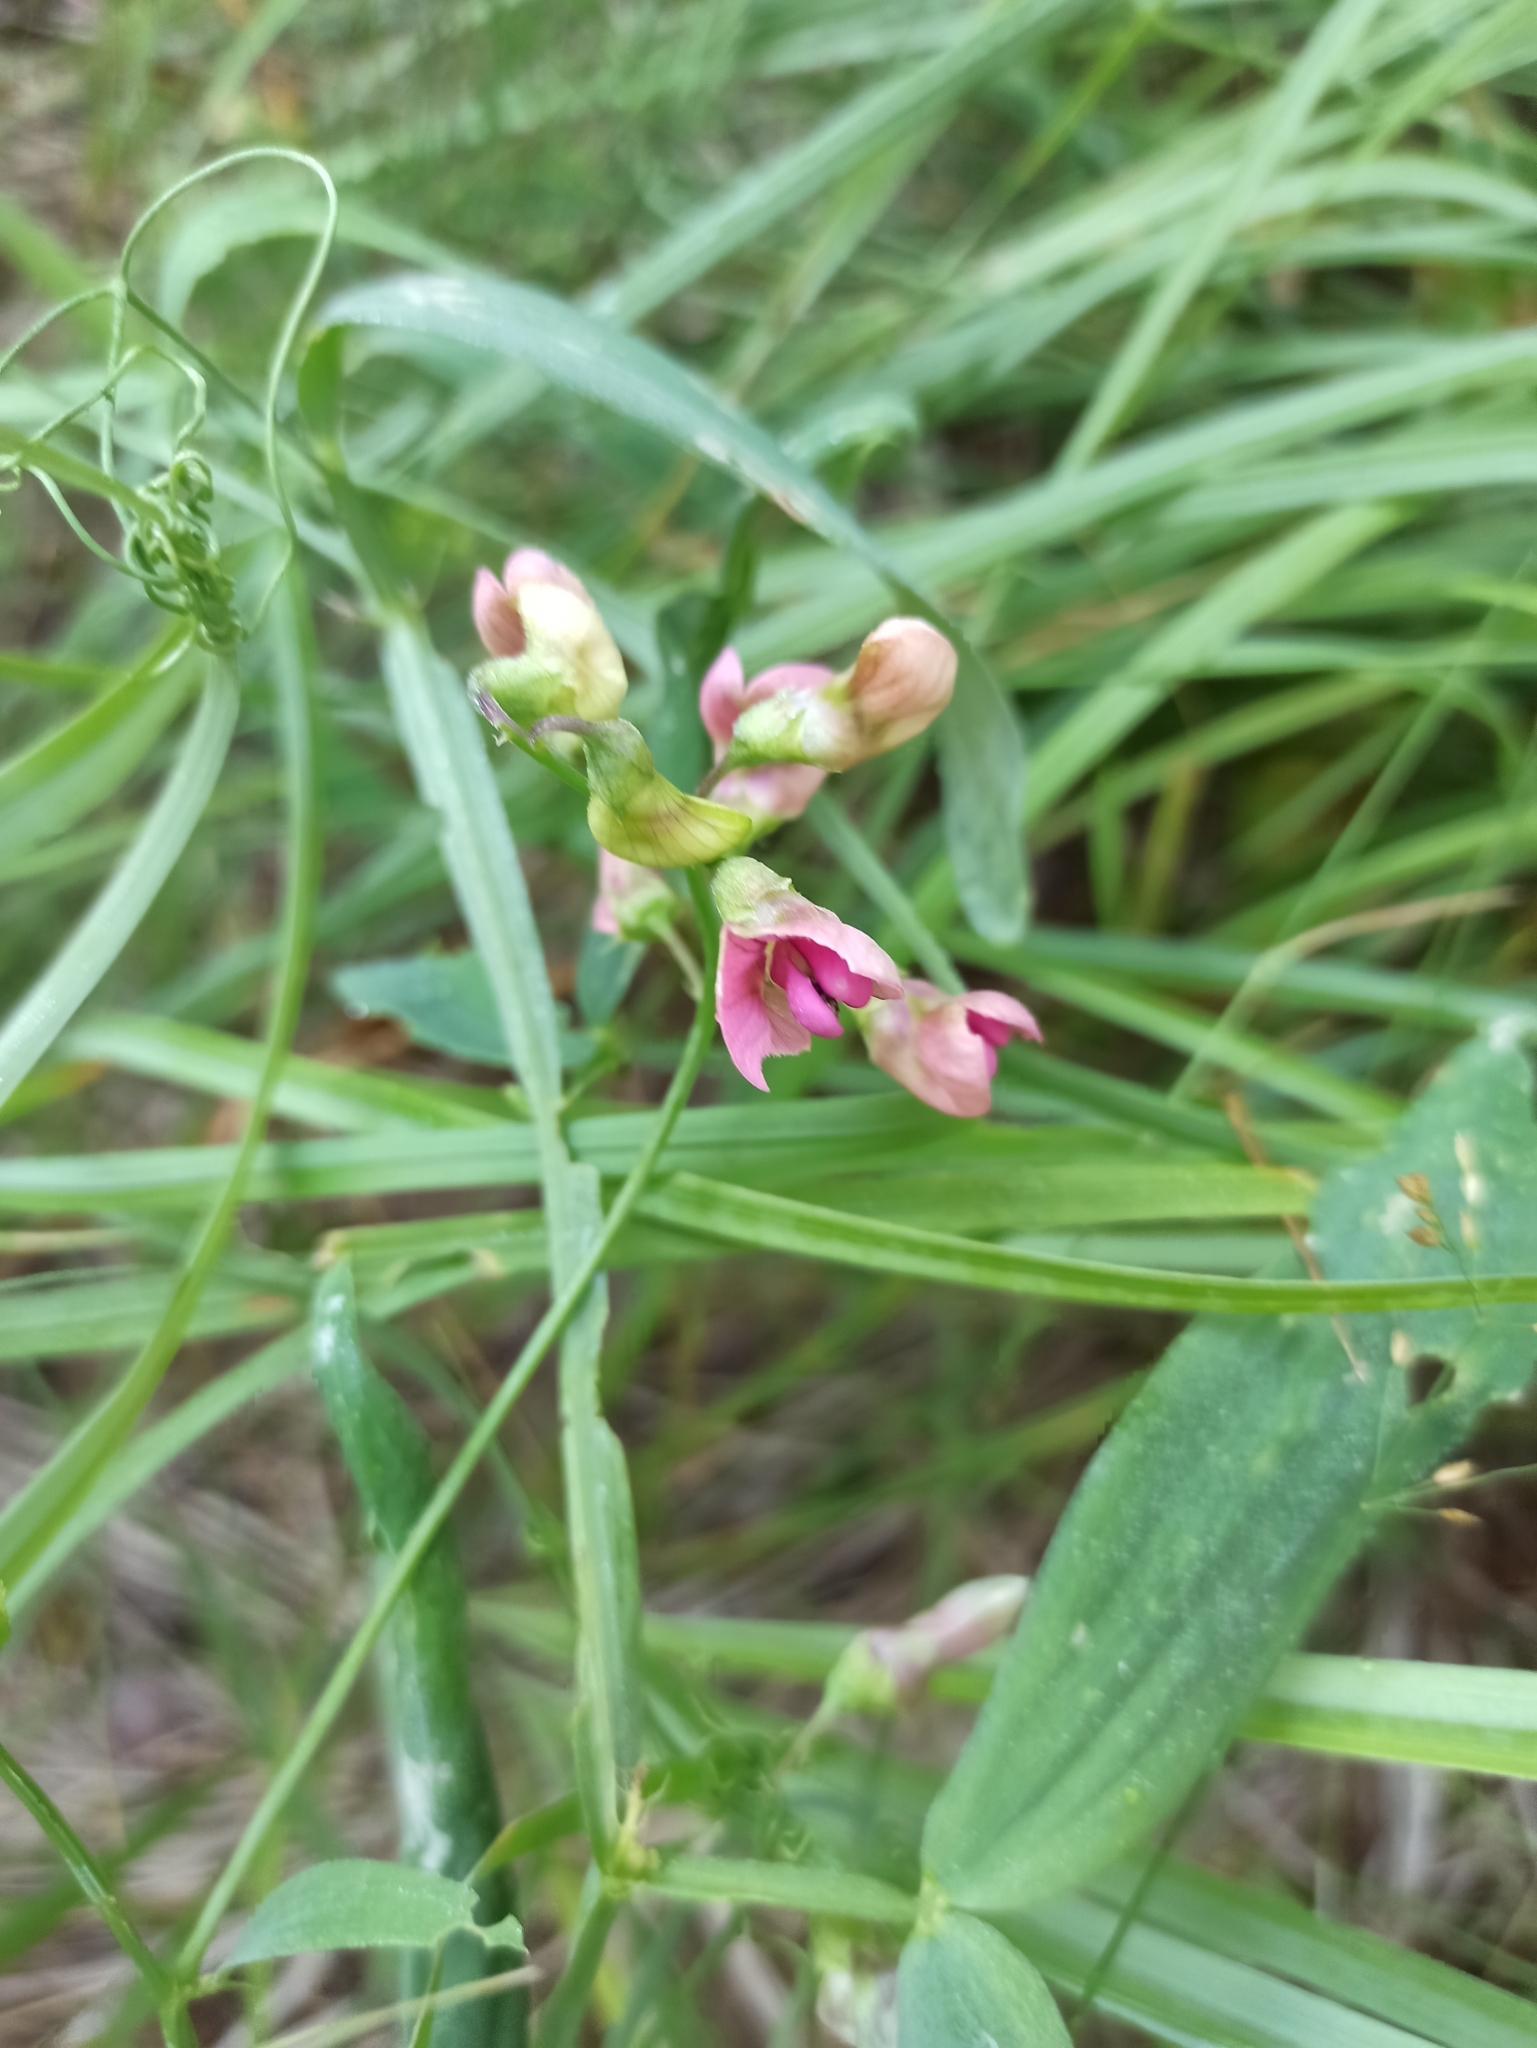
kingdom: Plantae
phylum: Tracheophyta
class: Magnoliopsida
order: Fabales
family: Fabaceae
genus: Lathyrus
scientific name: Lathyrus sylvestris
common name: Flat pea
